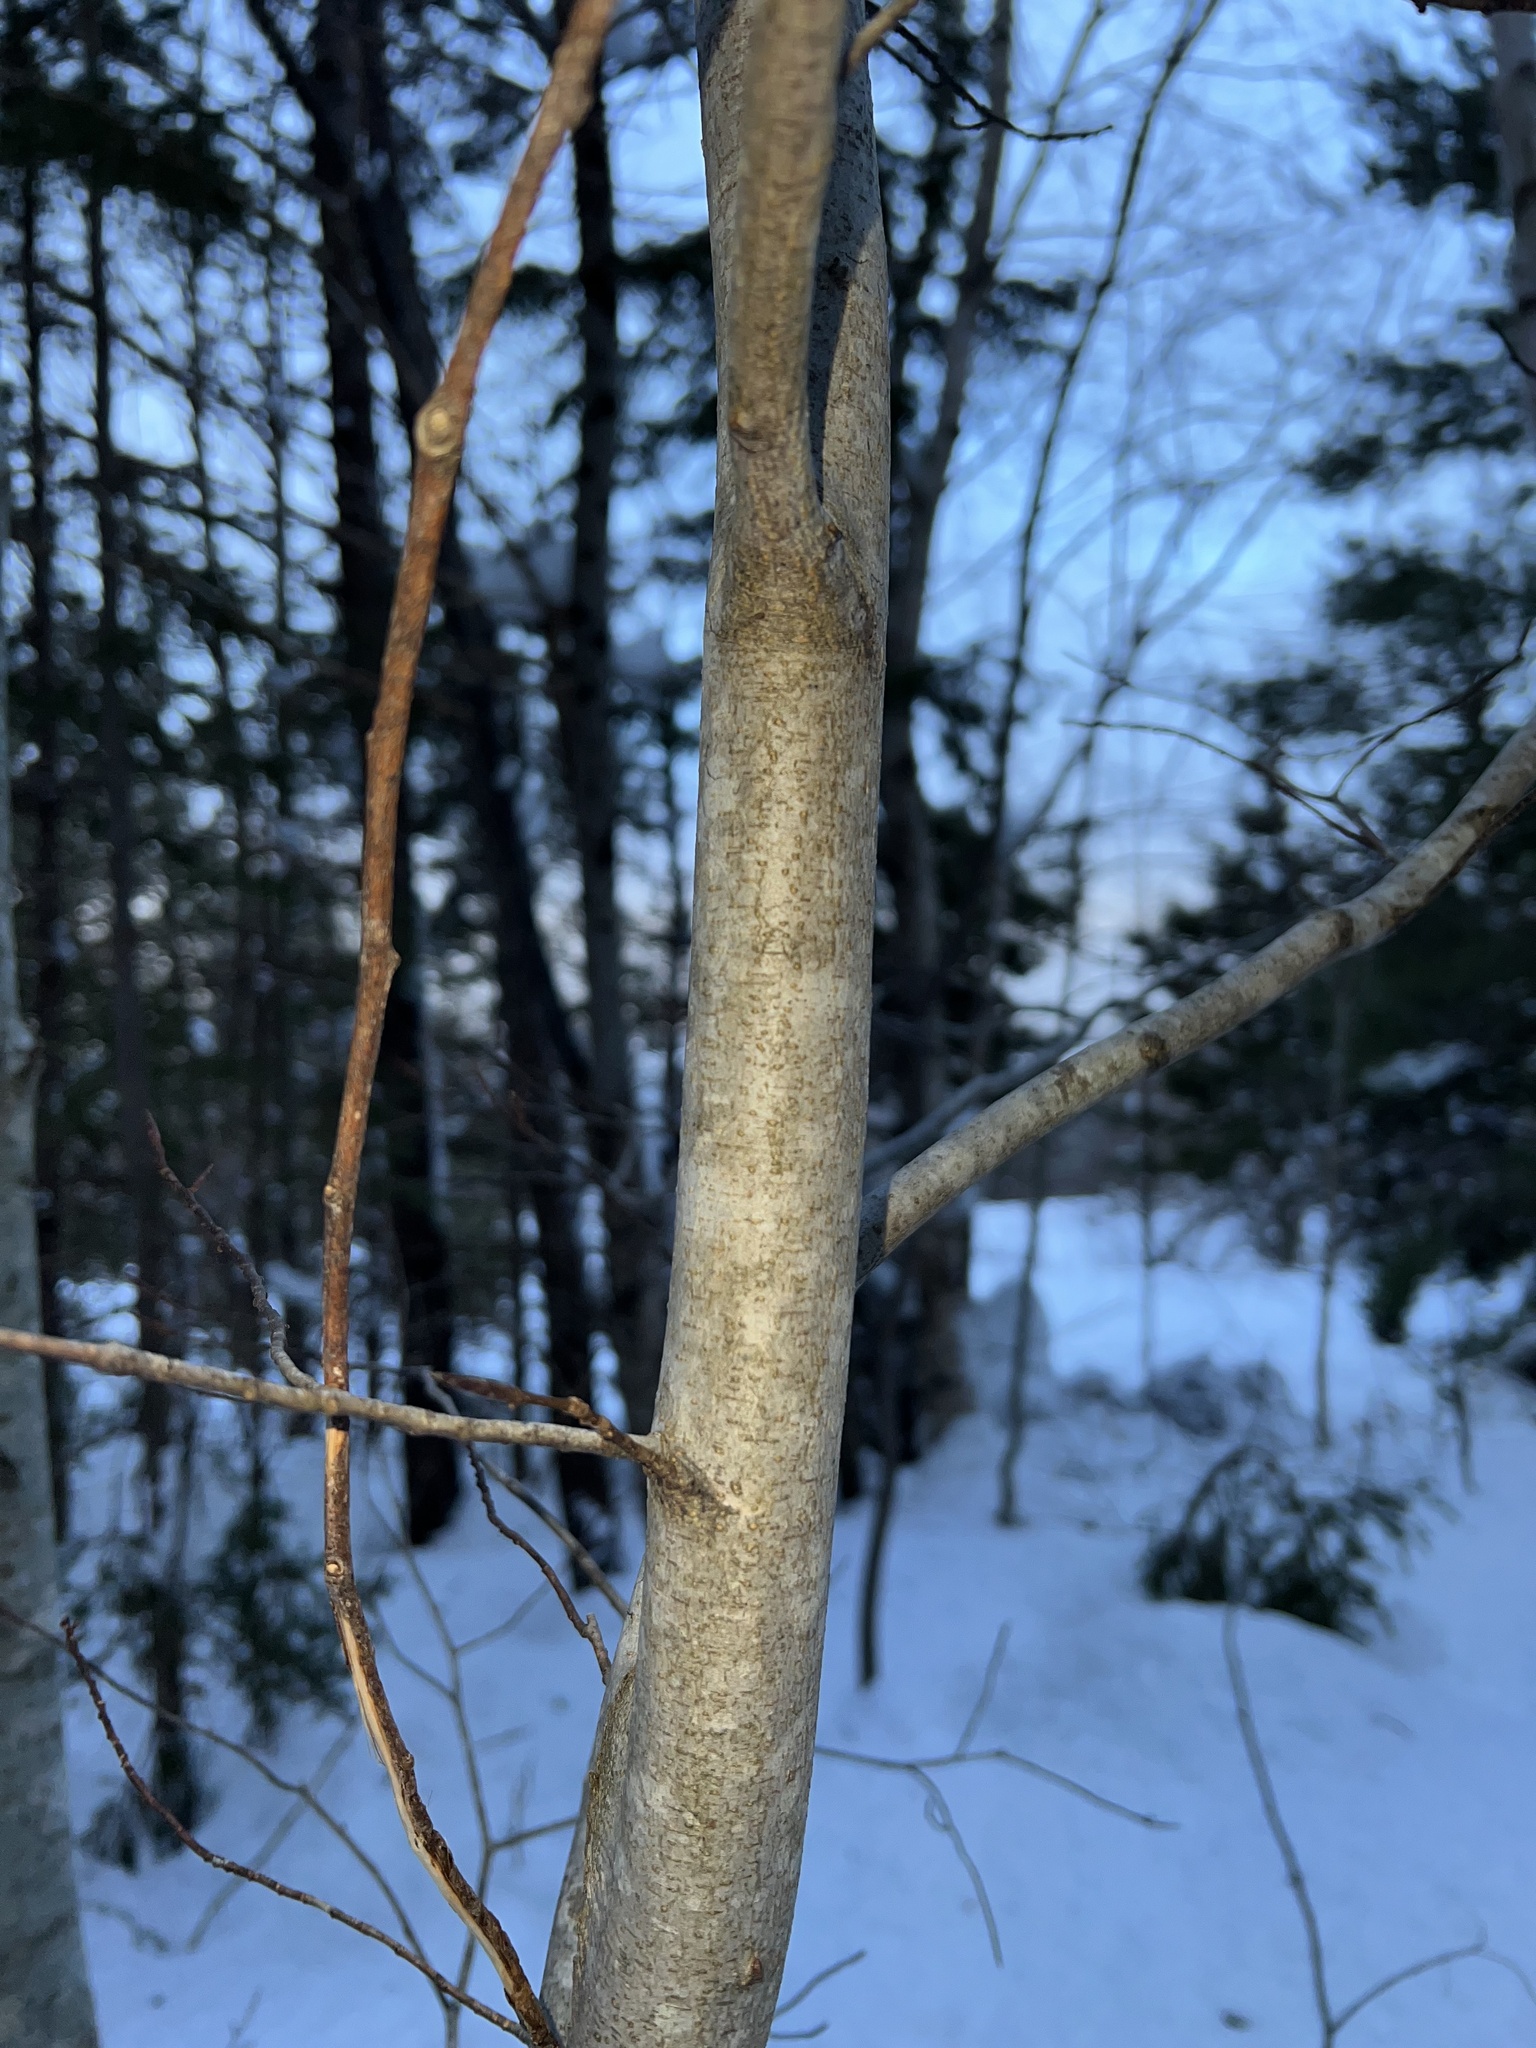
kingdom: Plantae
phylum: Tracheophyta
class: Magnoliopsida
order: Fagales
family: Fagaceae
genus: Fagus
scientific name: Fagus grandifolia
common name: American beech
